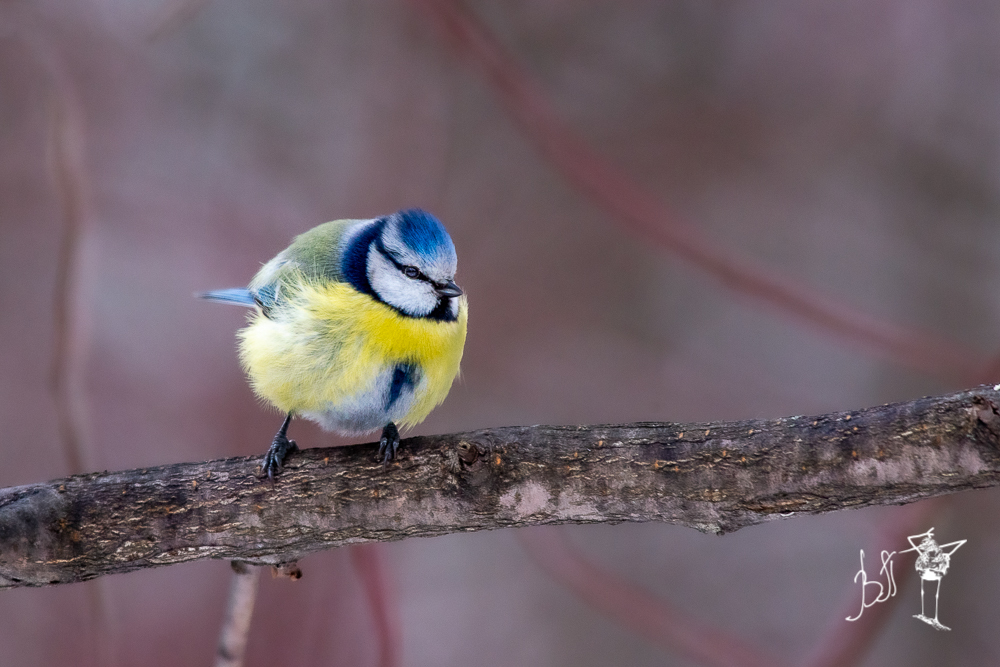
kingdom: Animalia
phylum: Chordata
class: Aves
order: Passeriformes
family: Paridae
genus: Cyanistes
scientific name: Cyanistes caeruleus
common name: Eurasian blue tit
